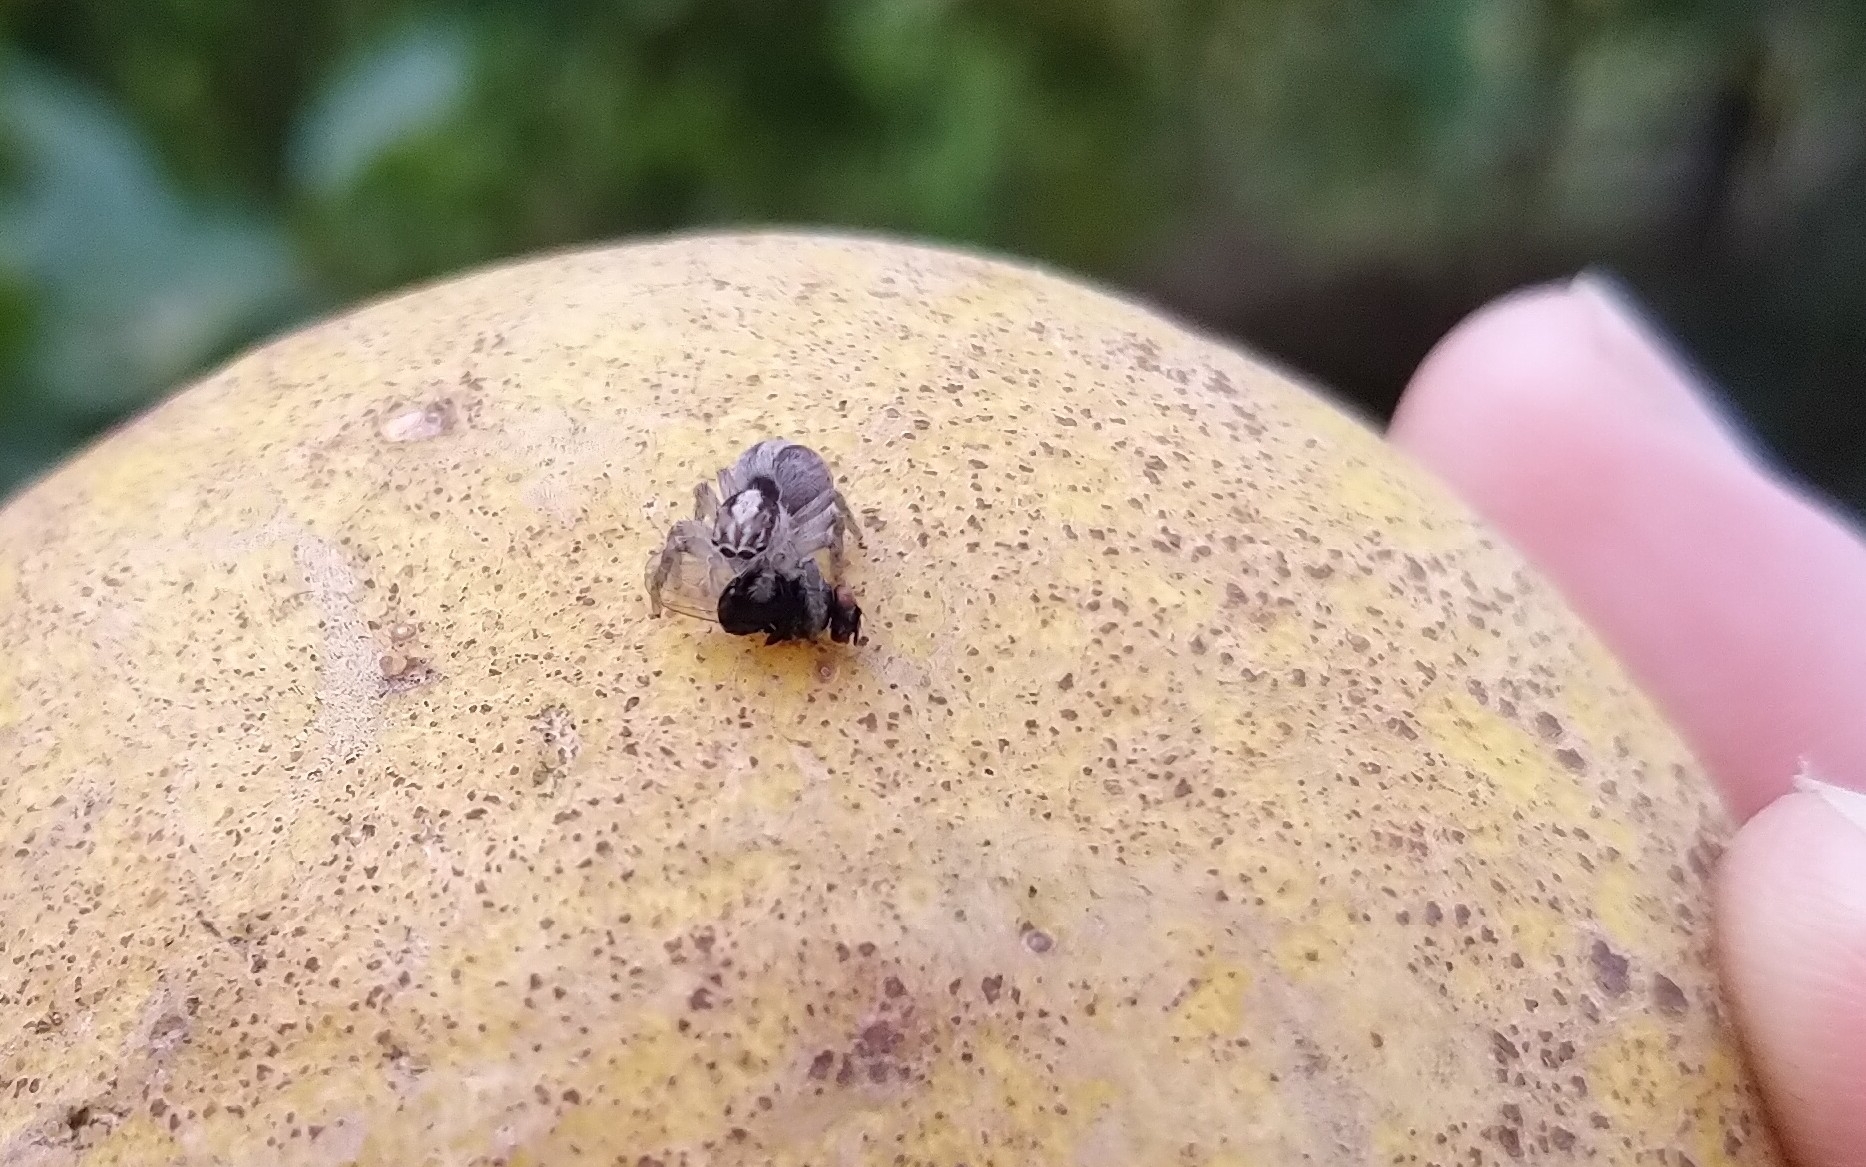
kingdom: Animalia
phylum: Arthropoda
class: Arachnida
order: Araneae
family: Salticidae
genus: Megafreya
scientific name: Megafreya sutrix
